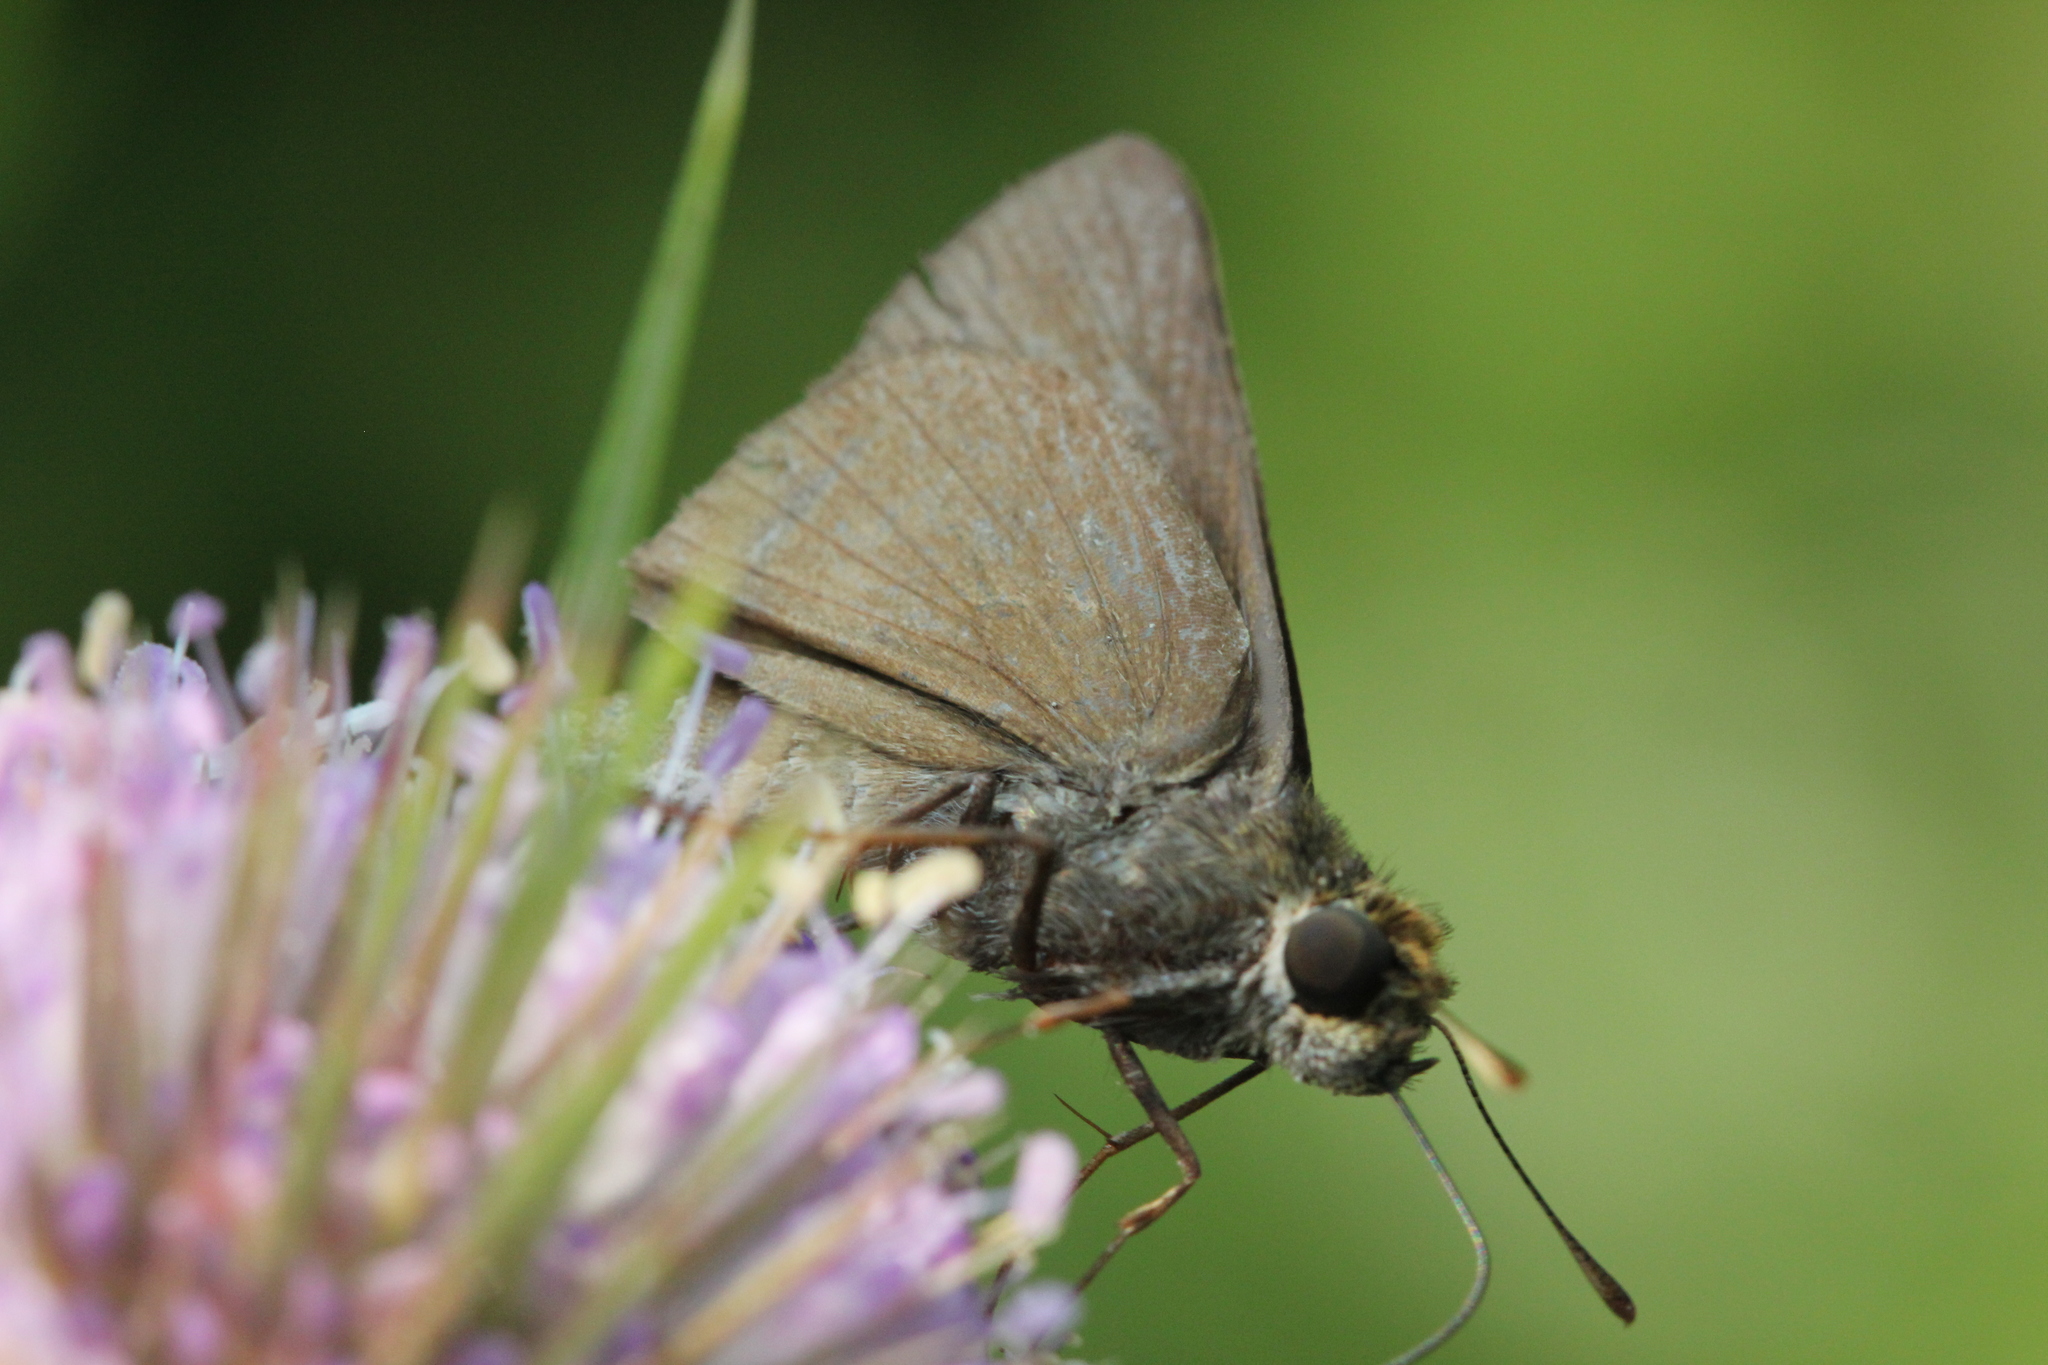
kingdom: Animalia
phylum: Arthropoda
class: Insecta
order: Lepidoptera
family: Hesperiidae
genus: Euphyes
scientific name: Euphyes vestris
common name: Dun skipper
